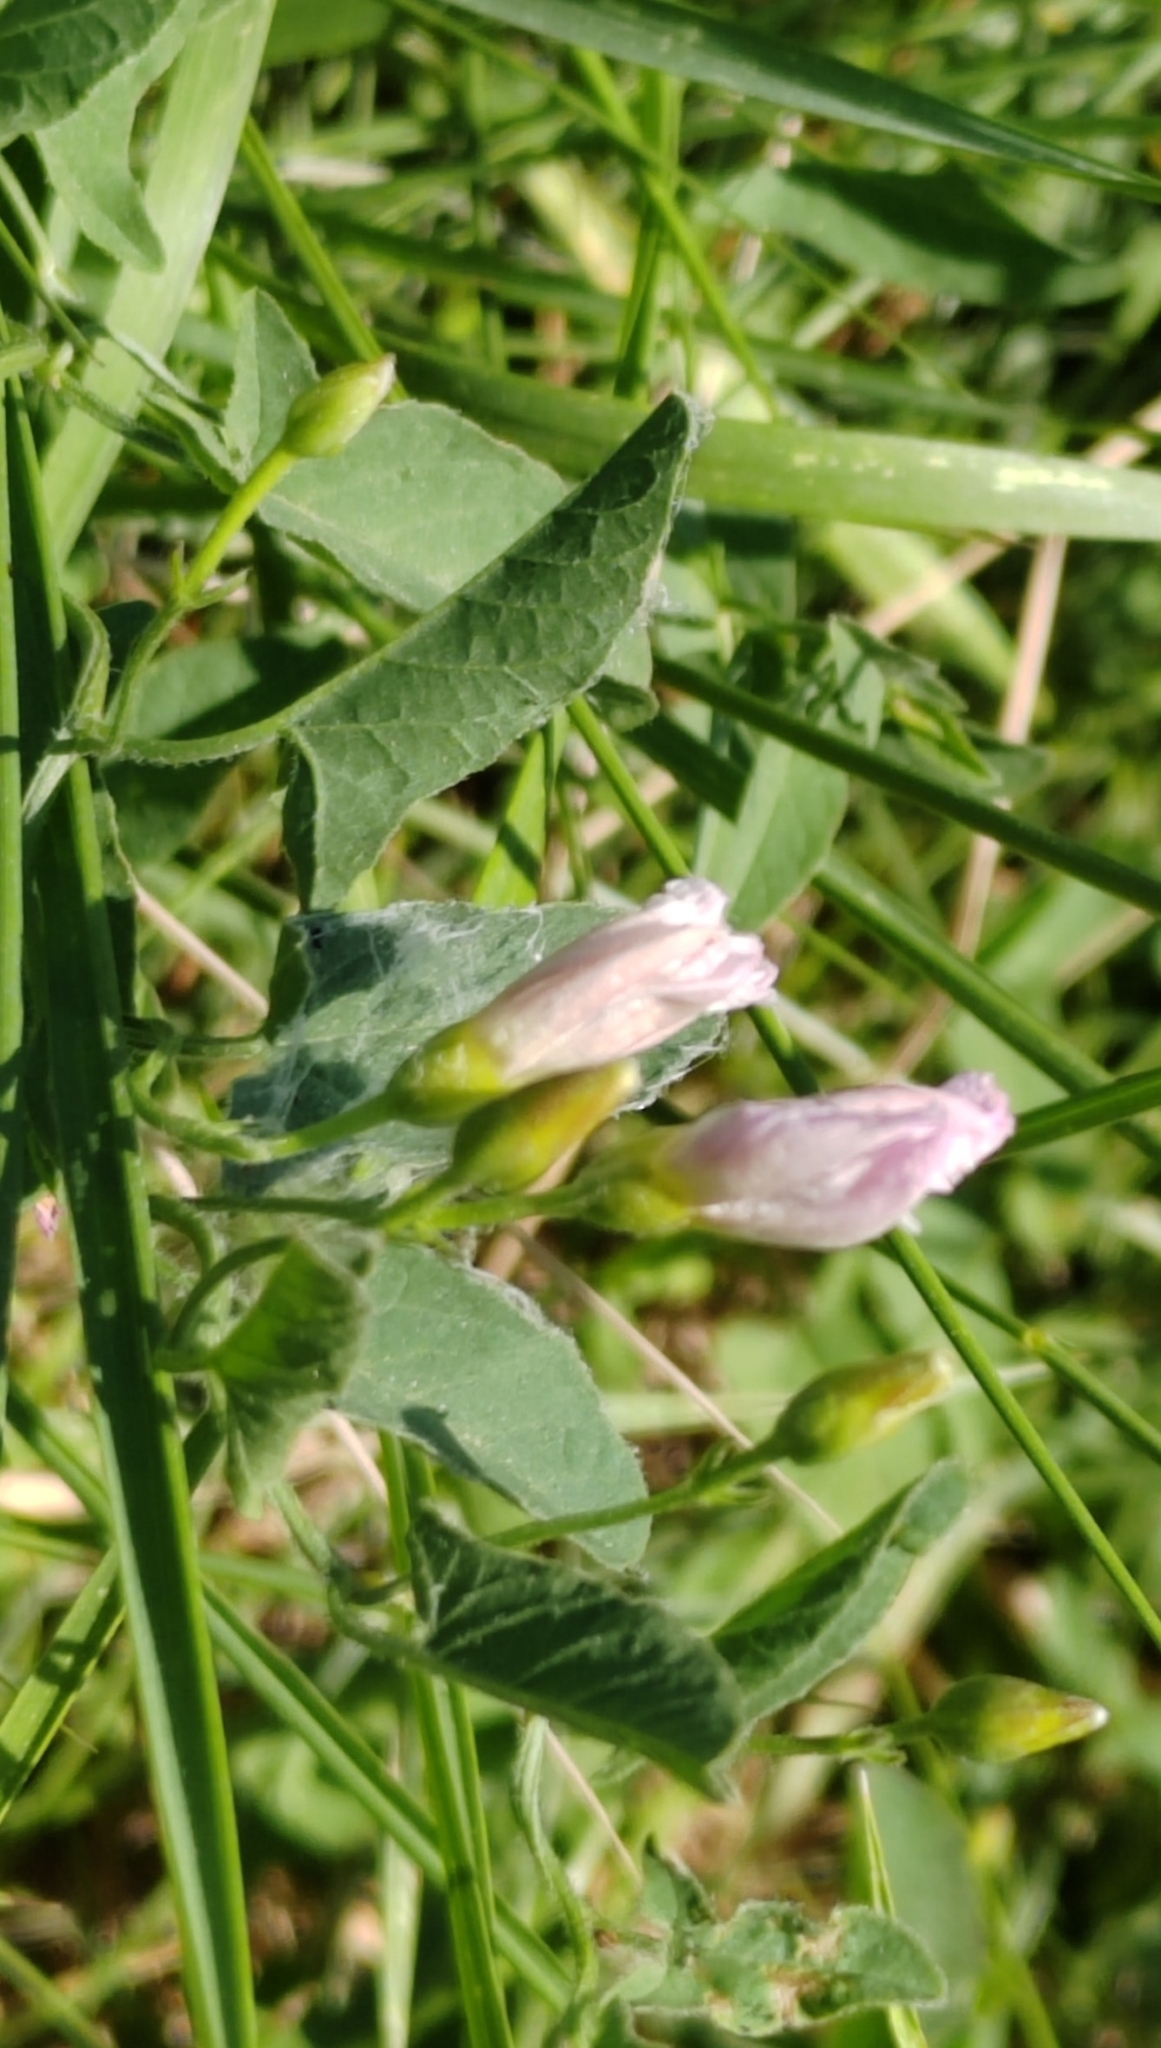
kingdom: Plantae
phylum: Tracheophyta
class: Magnoliopsida
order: Solanales
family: Convolvulaceae
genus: Convolvulus
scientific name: Convolvulus arvensis
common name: Field bindweed
